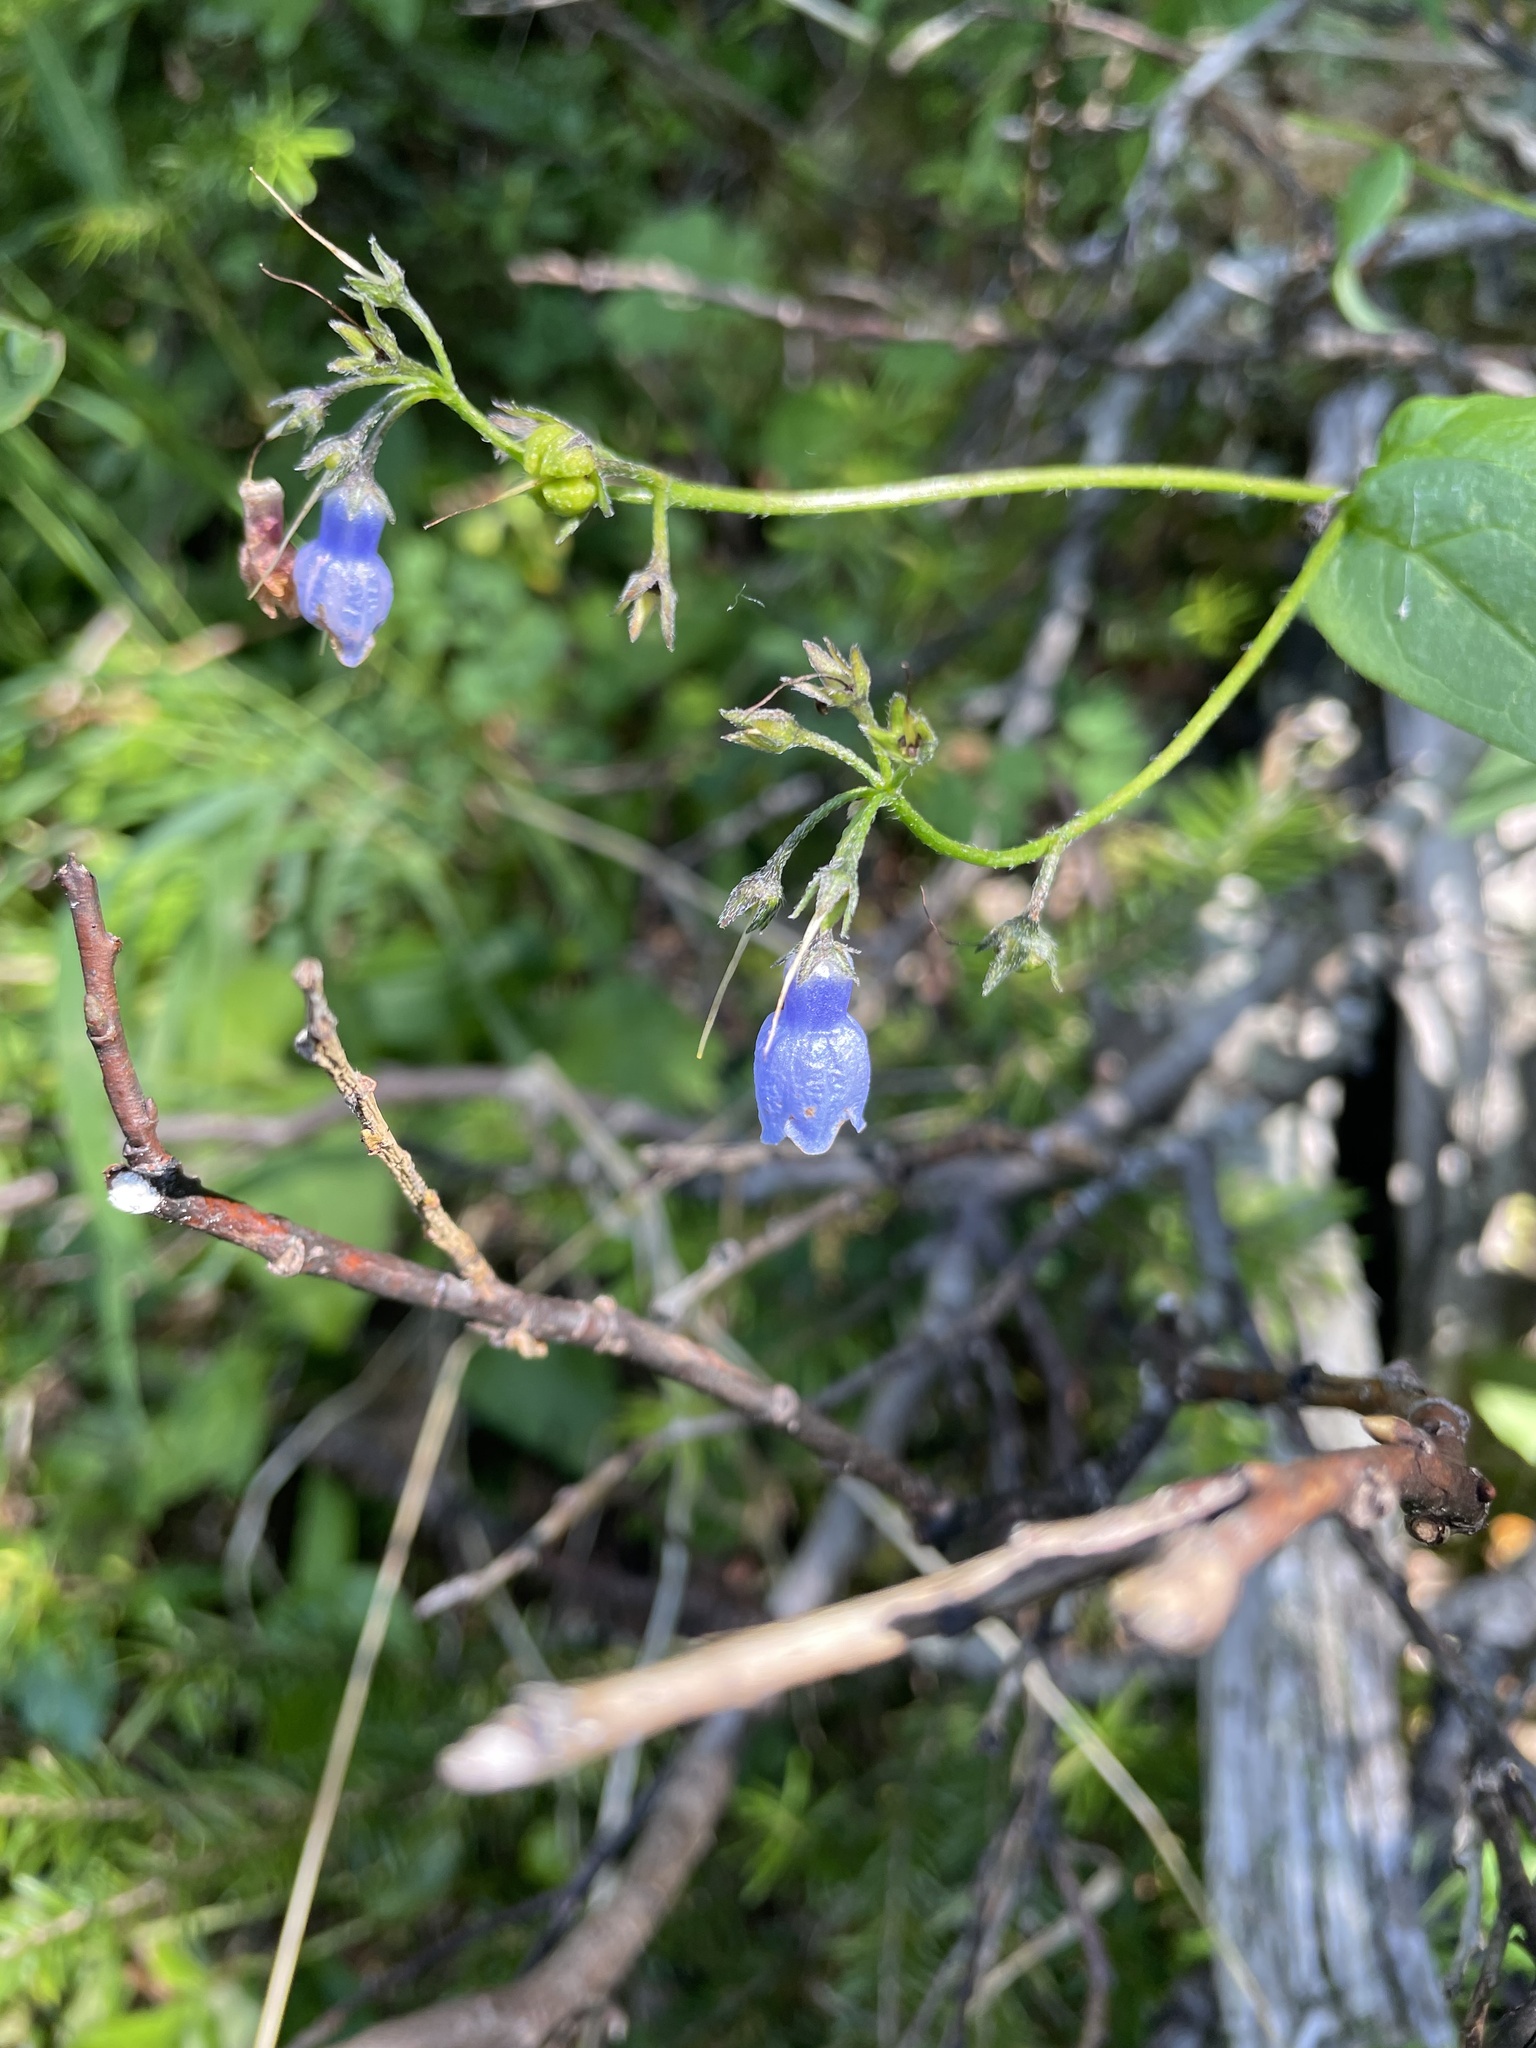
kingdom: Plantae
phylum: Tracheophyta
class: Magnoliopsida
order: Boraginales
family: Boraginaceae
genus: Mertensia
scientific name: Mertensia paniculata
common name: Panicled bluebells
